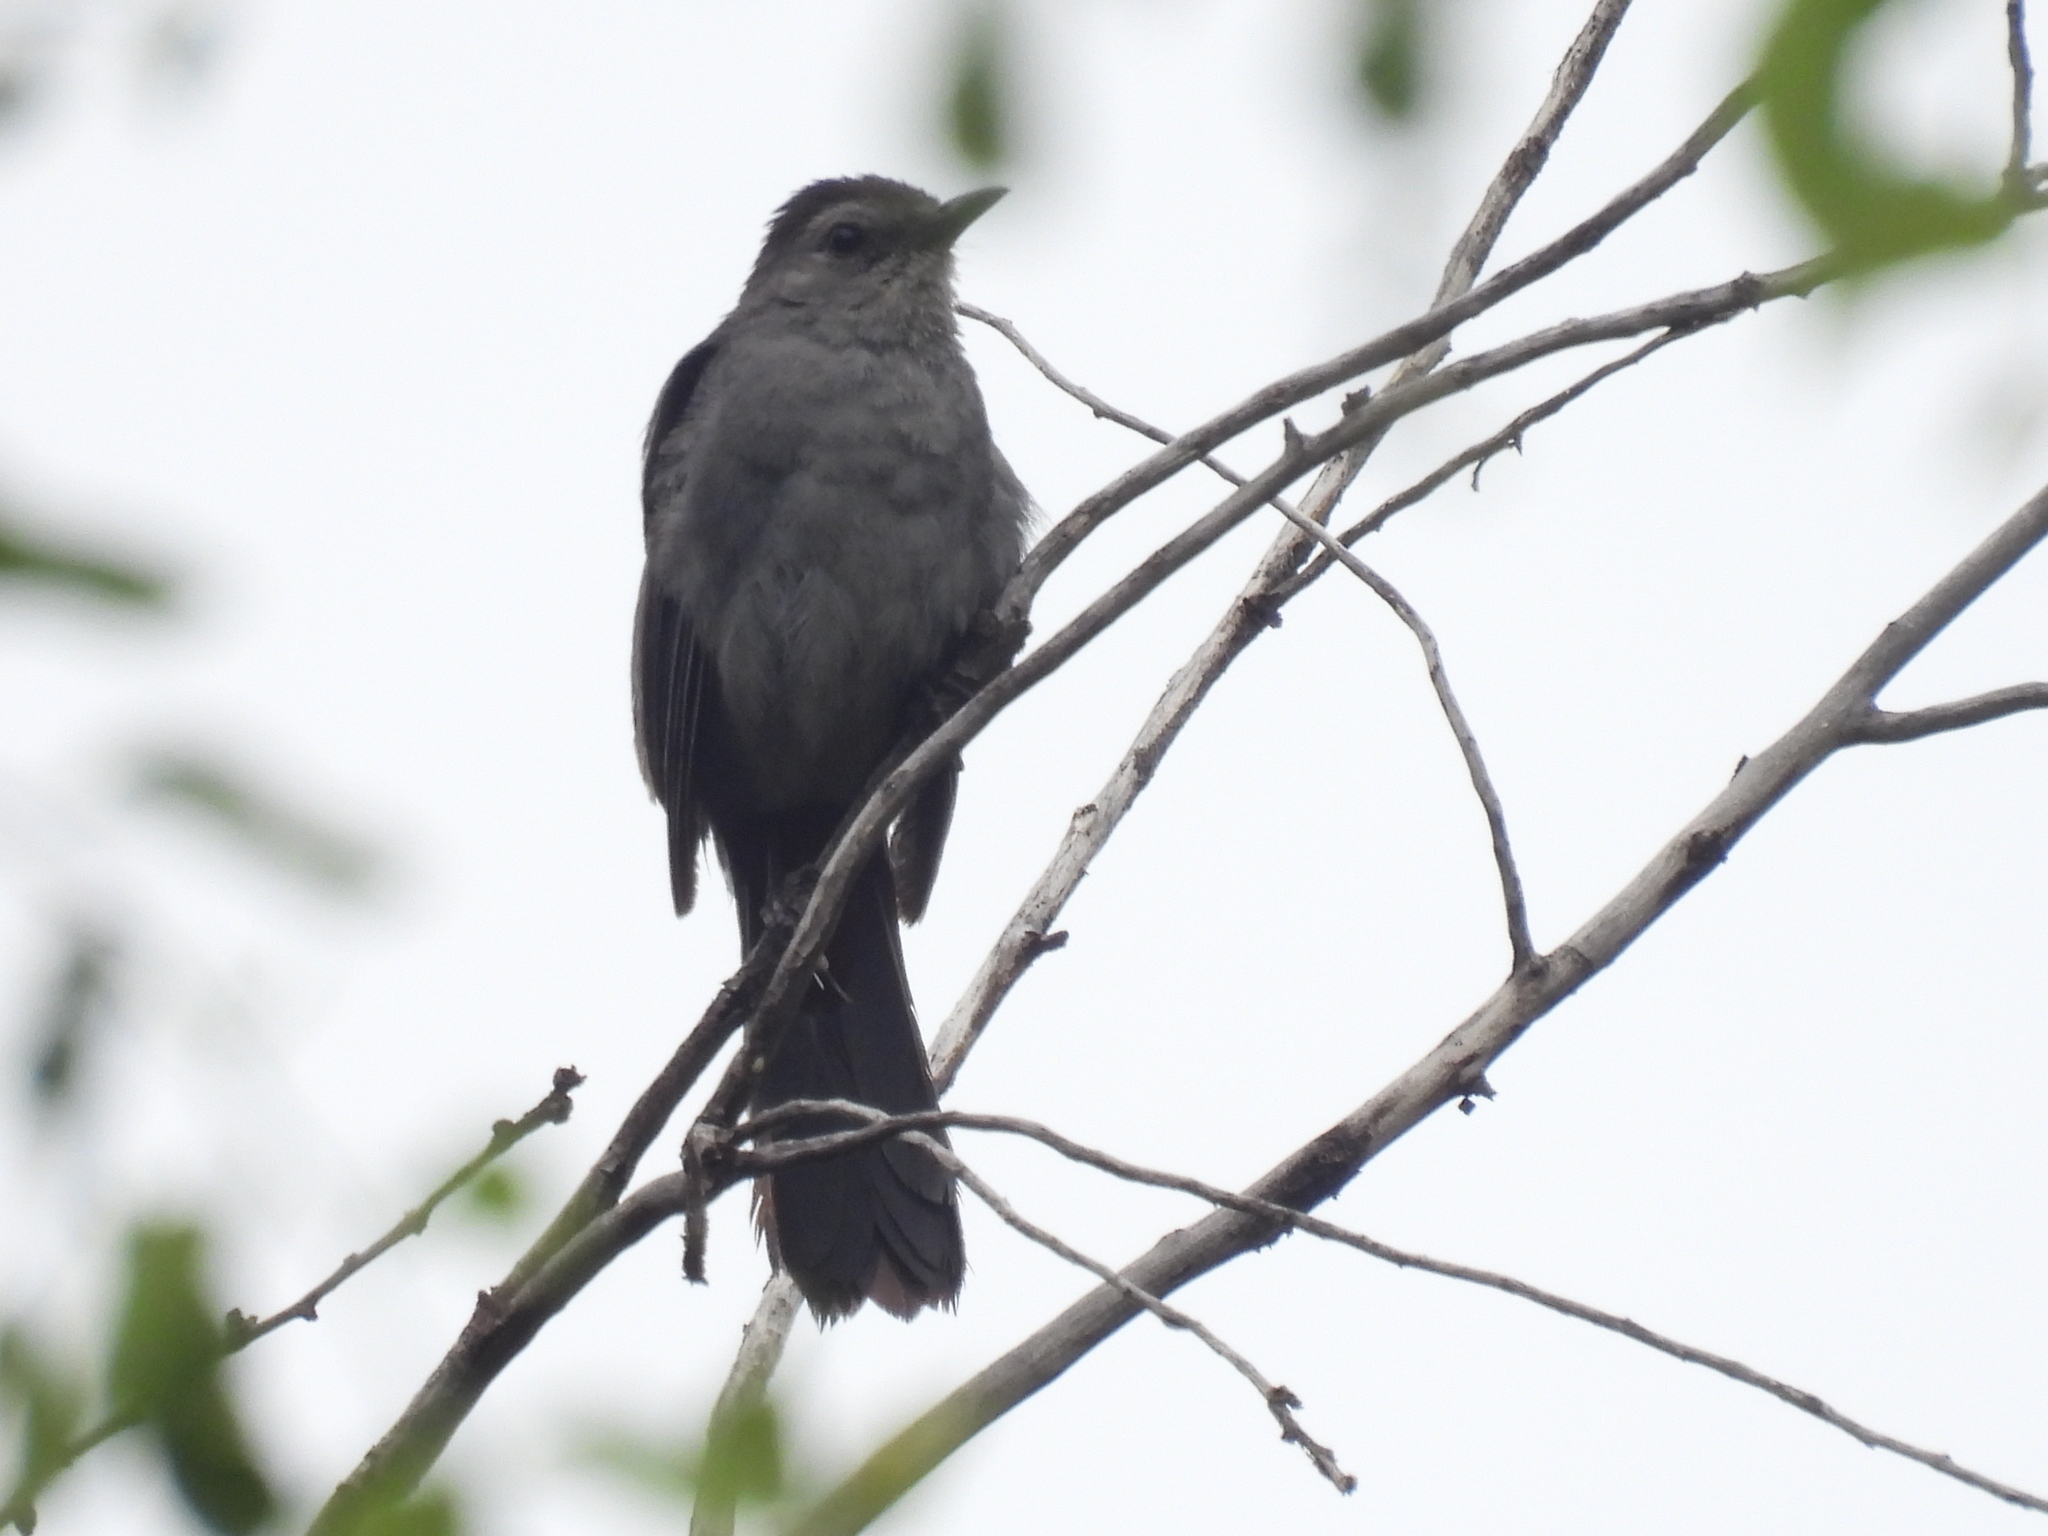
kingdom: Animalia
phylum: Chordata
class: Aves
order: Passeriformes
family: Mimidae
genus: Dumetella
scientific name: Dumetella carolinensis
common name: Gray catbird
